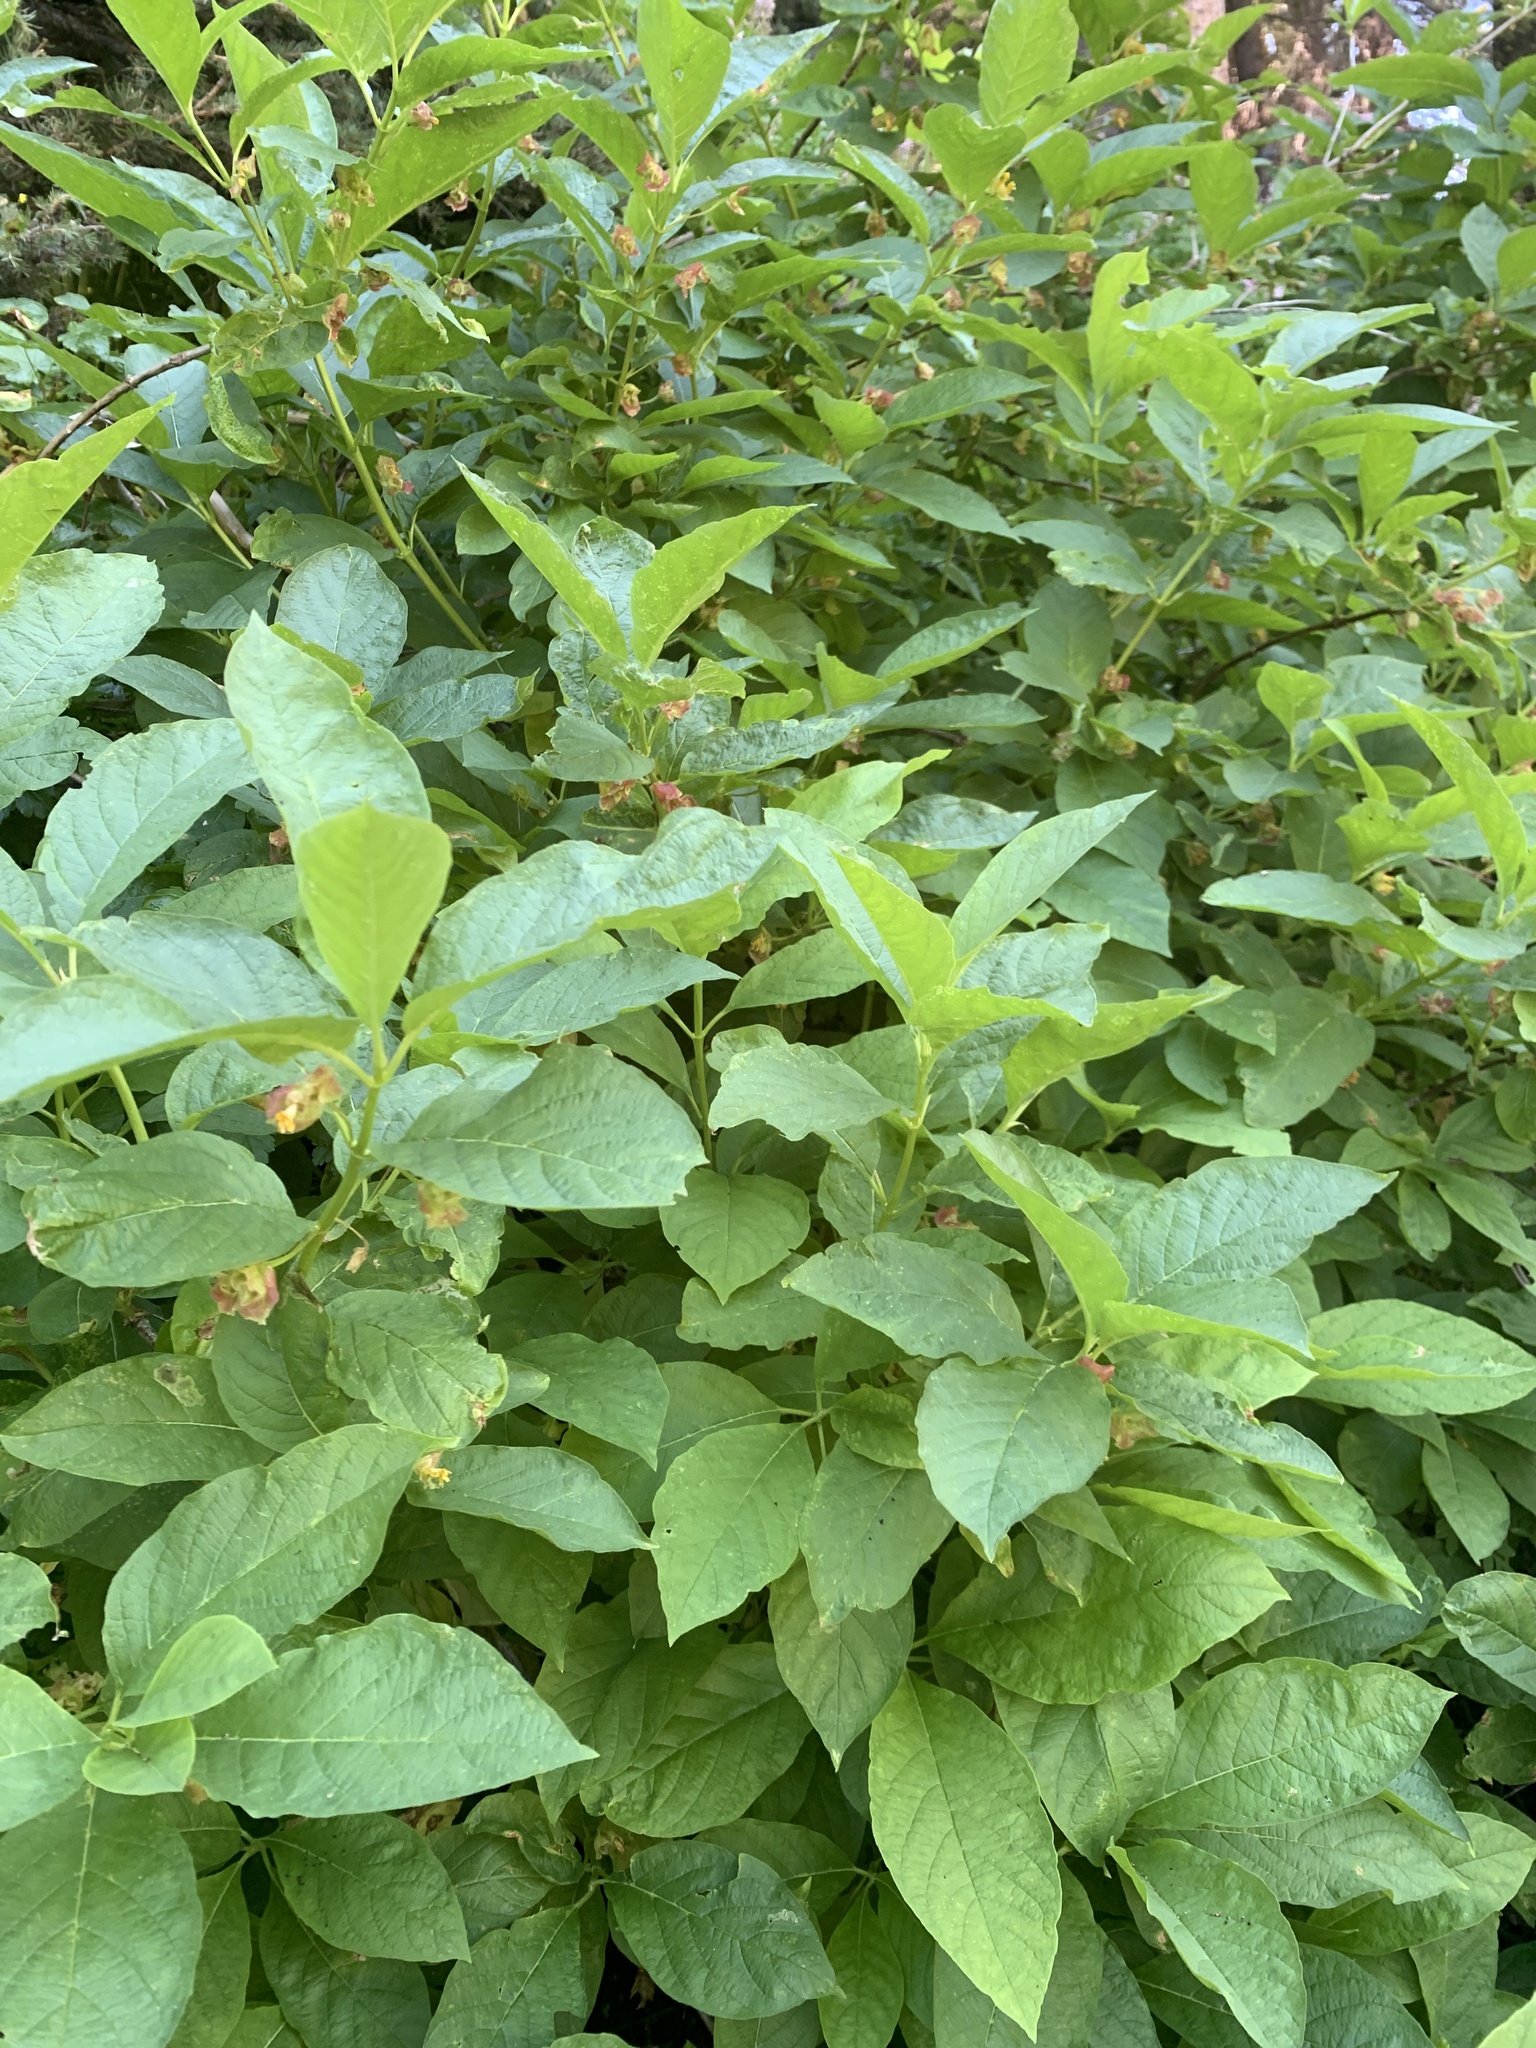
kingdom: Plantae
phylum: Tracheophyta
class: Magnoliopsida
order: Dipsacales
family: Caprifoliaceae
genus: Lonicera
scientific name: Lonicera involucrata
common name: Californian honeysuckle
